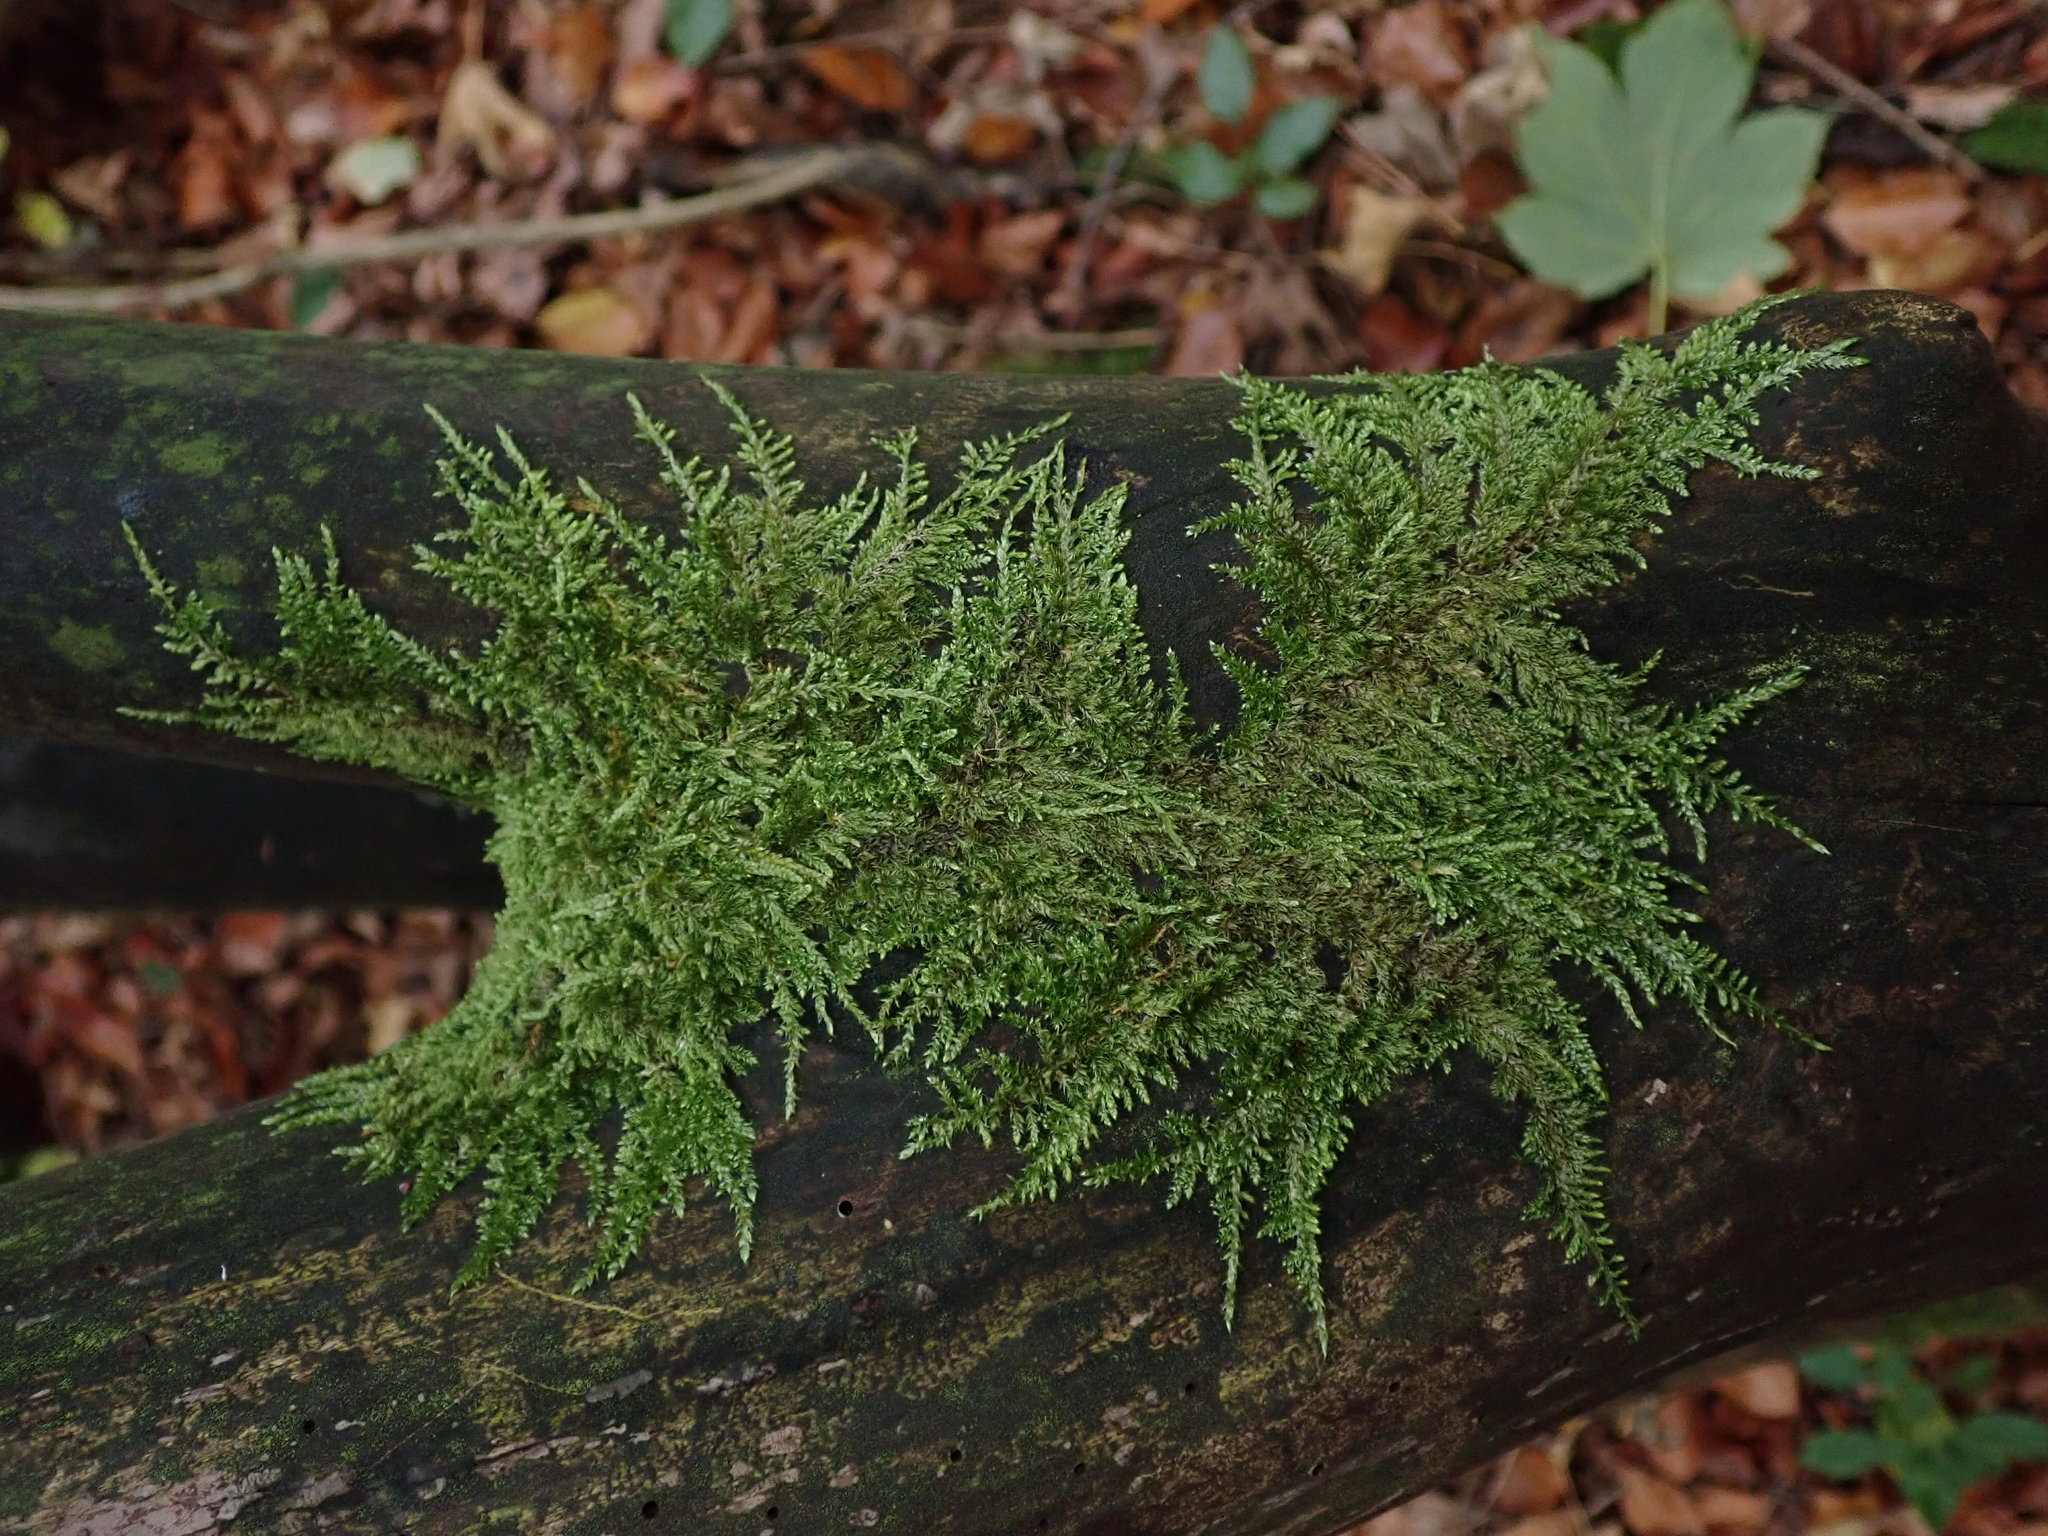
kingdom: Plantae
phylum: Bryophyta
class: Bryopsida
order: Hypnales
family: Hypnaceae
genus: Hypnum
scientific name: Hypnum cupressiforme
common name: Cypress-leaved plait-moss
